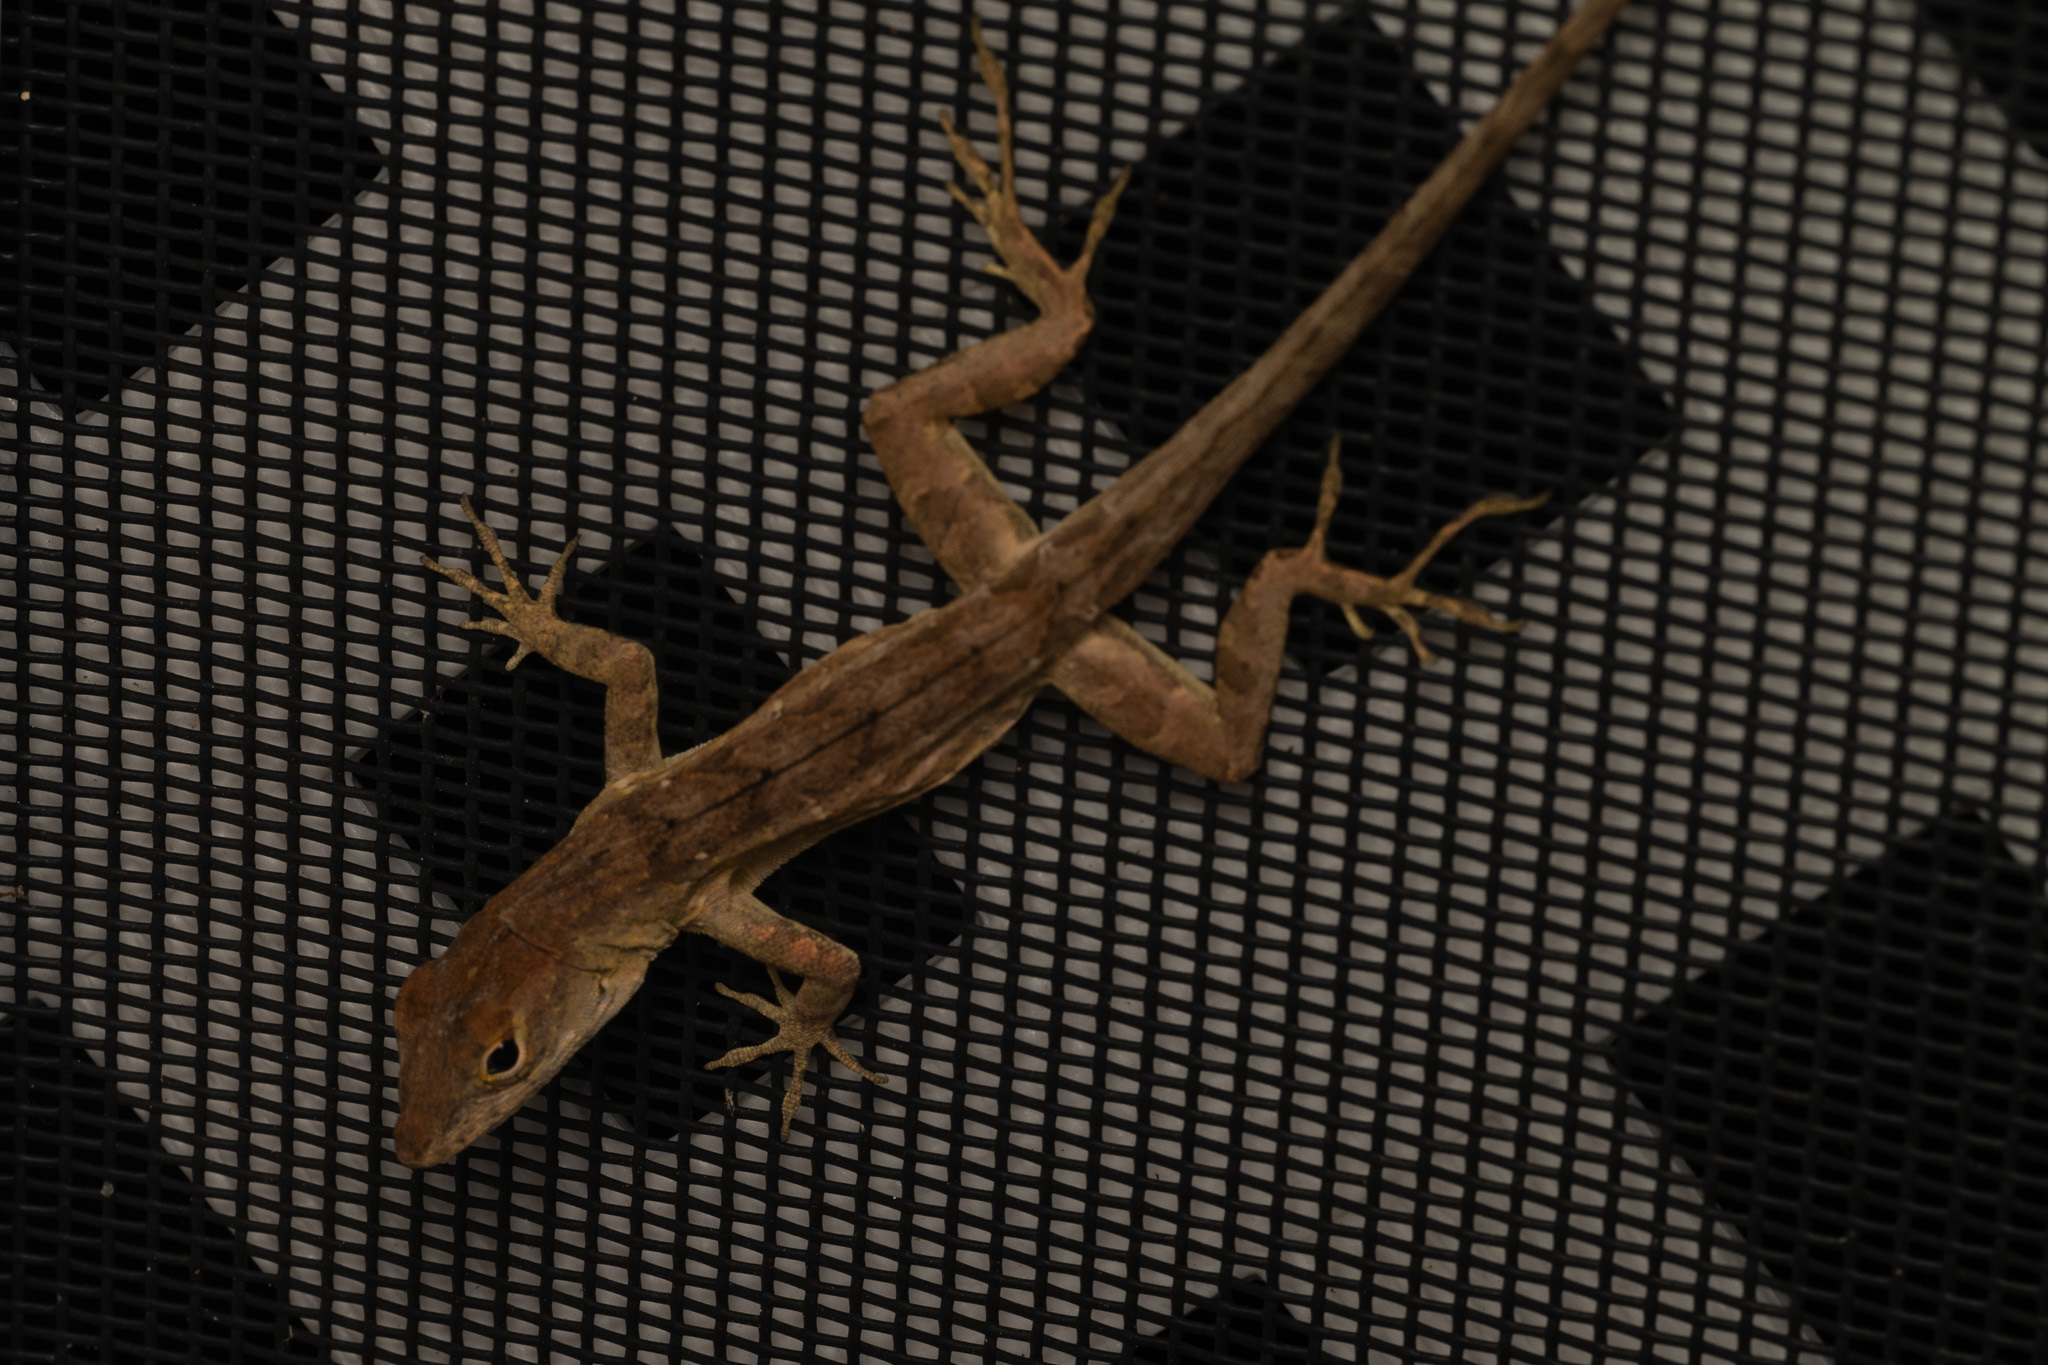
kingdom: Animalia
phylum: Chordata
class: Squamata
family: Dactyloidae
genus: Anolis
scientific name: Anolis sagrei
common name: Brown anole
